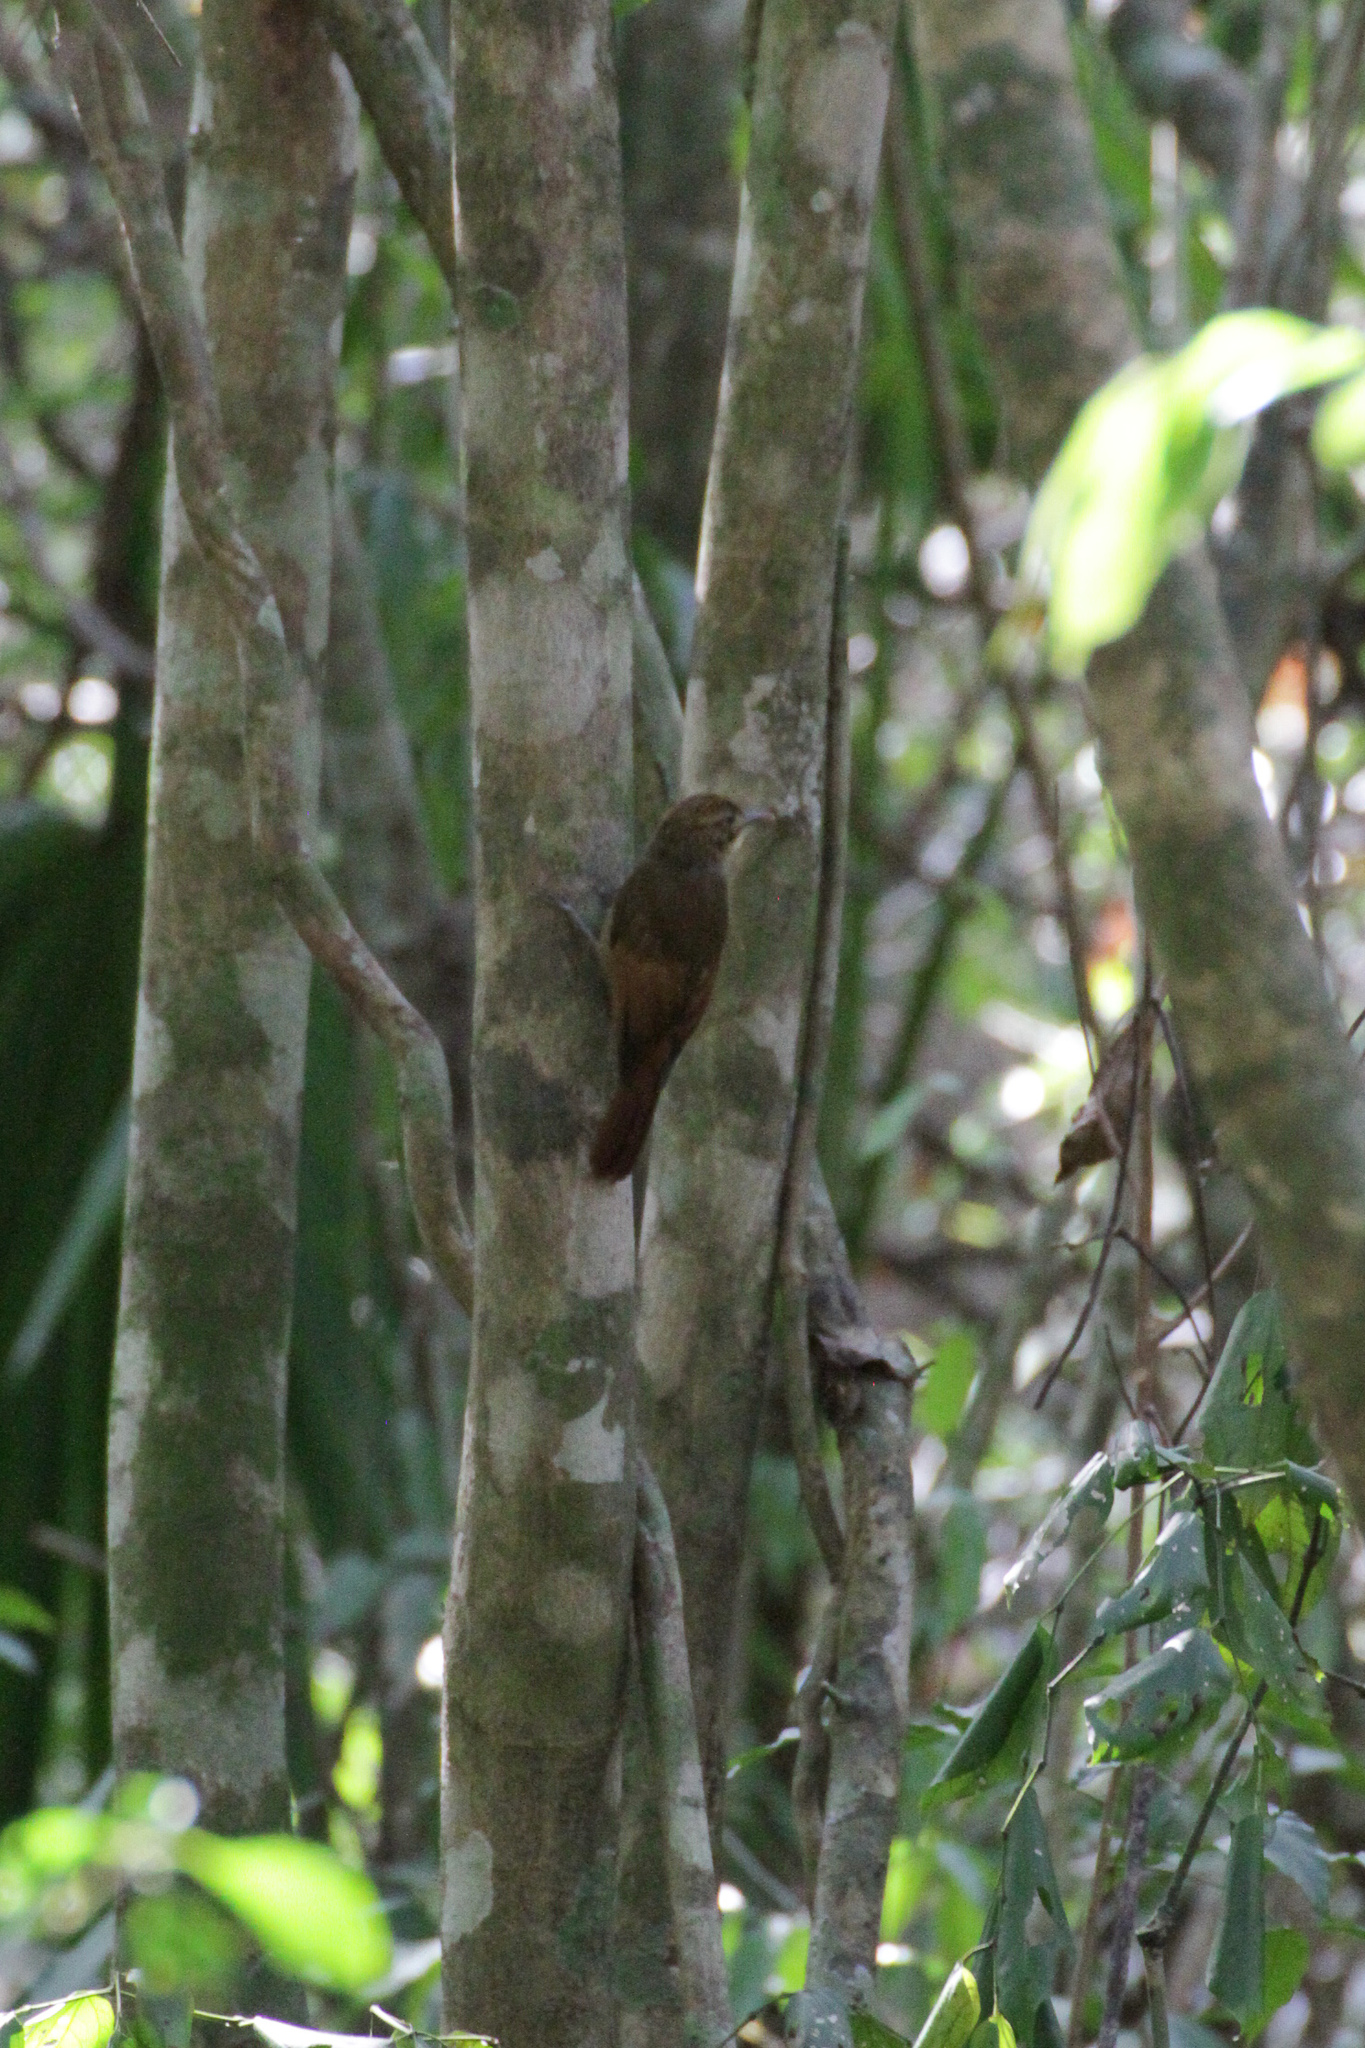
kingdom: Animalia
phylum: Chordata
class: Aves
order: Passeriformes
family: Furnariidae
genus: Dendrocincla
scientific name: Dendrocincla anabatina
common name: Tawny-winged woodcreeper
